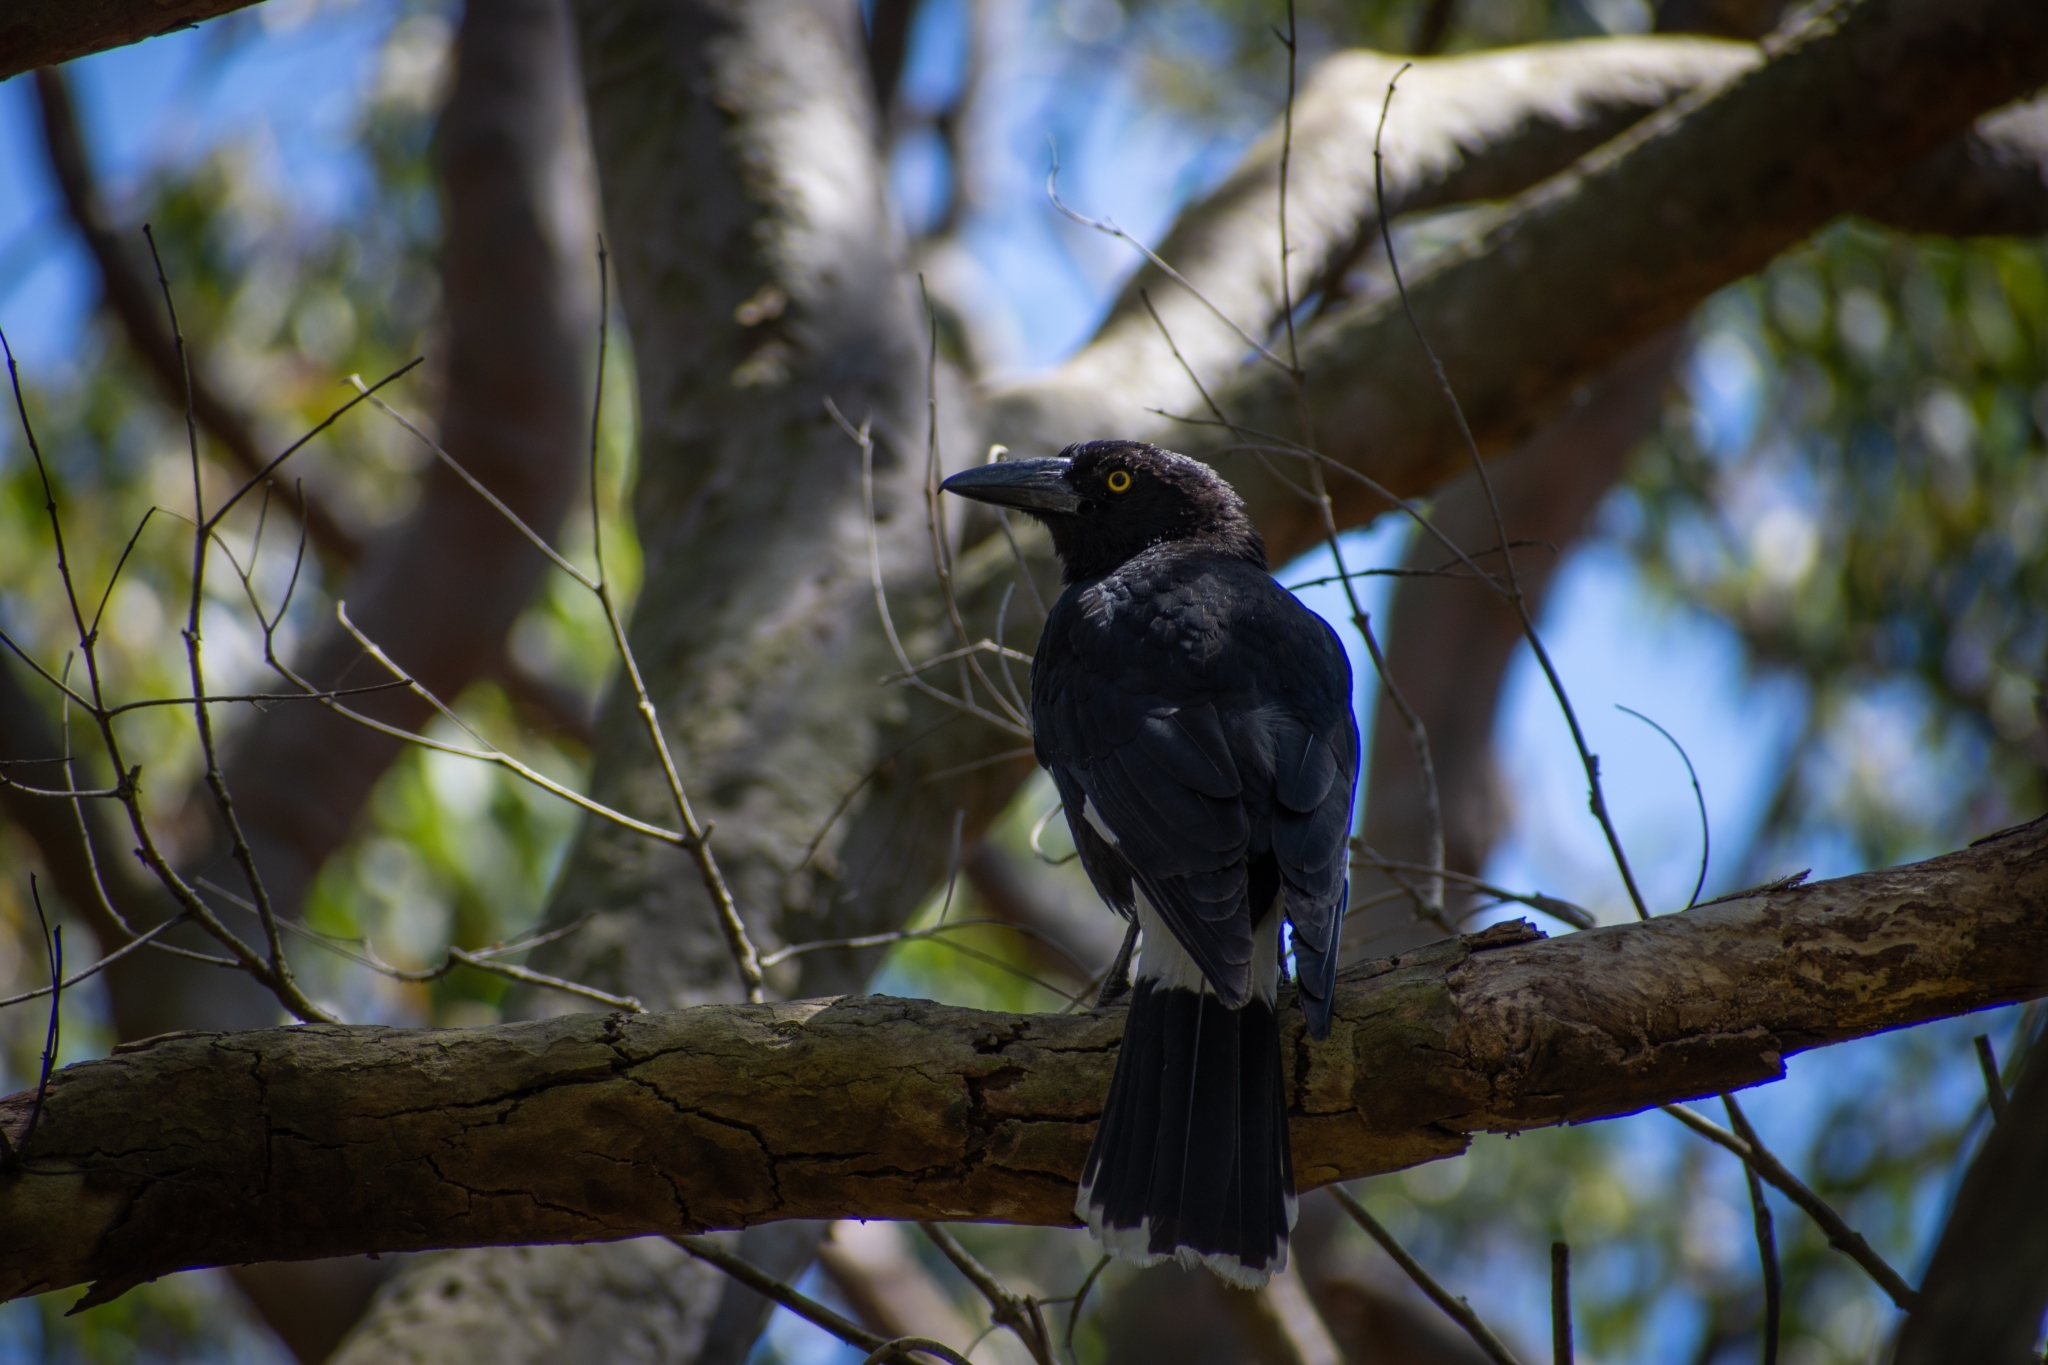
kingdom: Animalia
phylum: Chordata
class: Aves
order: Passeriformes
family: Cracticidae
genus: Strepera
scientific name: Strepera graculina
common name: Pied currawong
